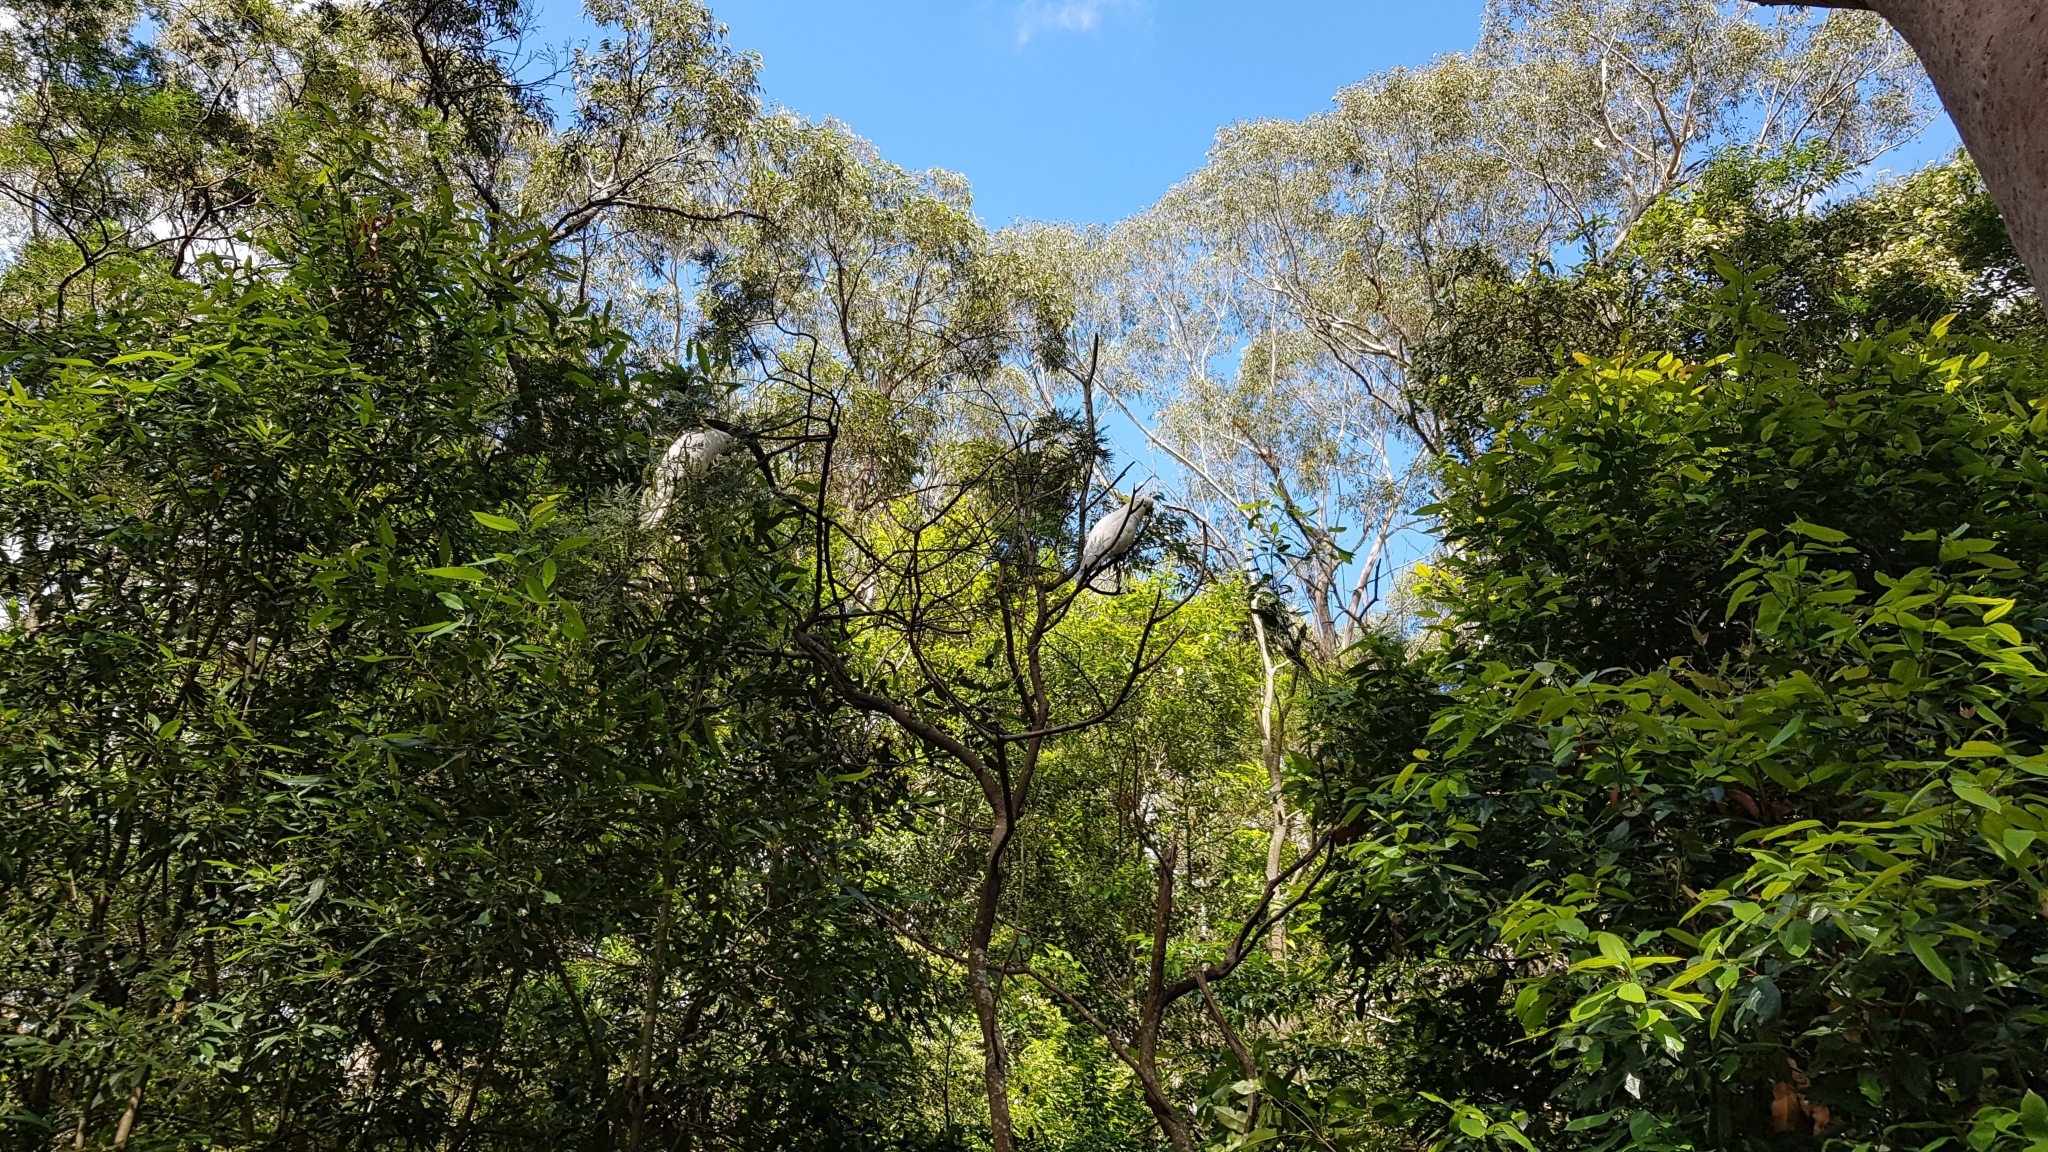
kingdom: Animalia
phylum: Chordata
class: Aves
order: Psittaciformes
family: Psittacidae
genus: Cacatua
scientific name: Cacatua galerita
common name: Sulphur-crested cockatoo
